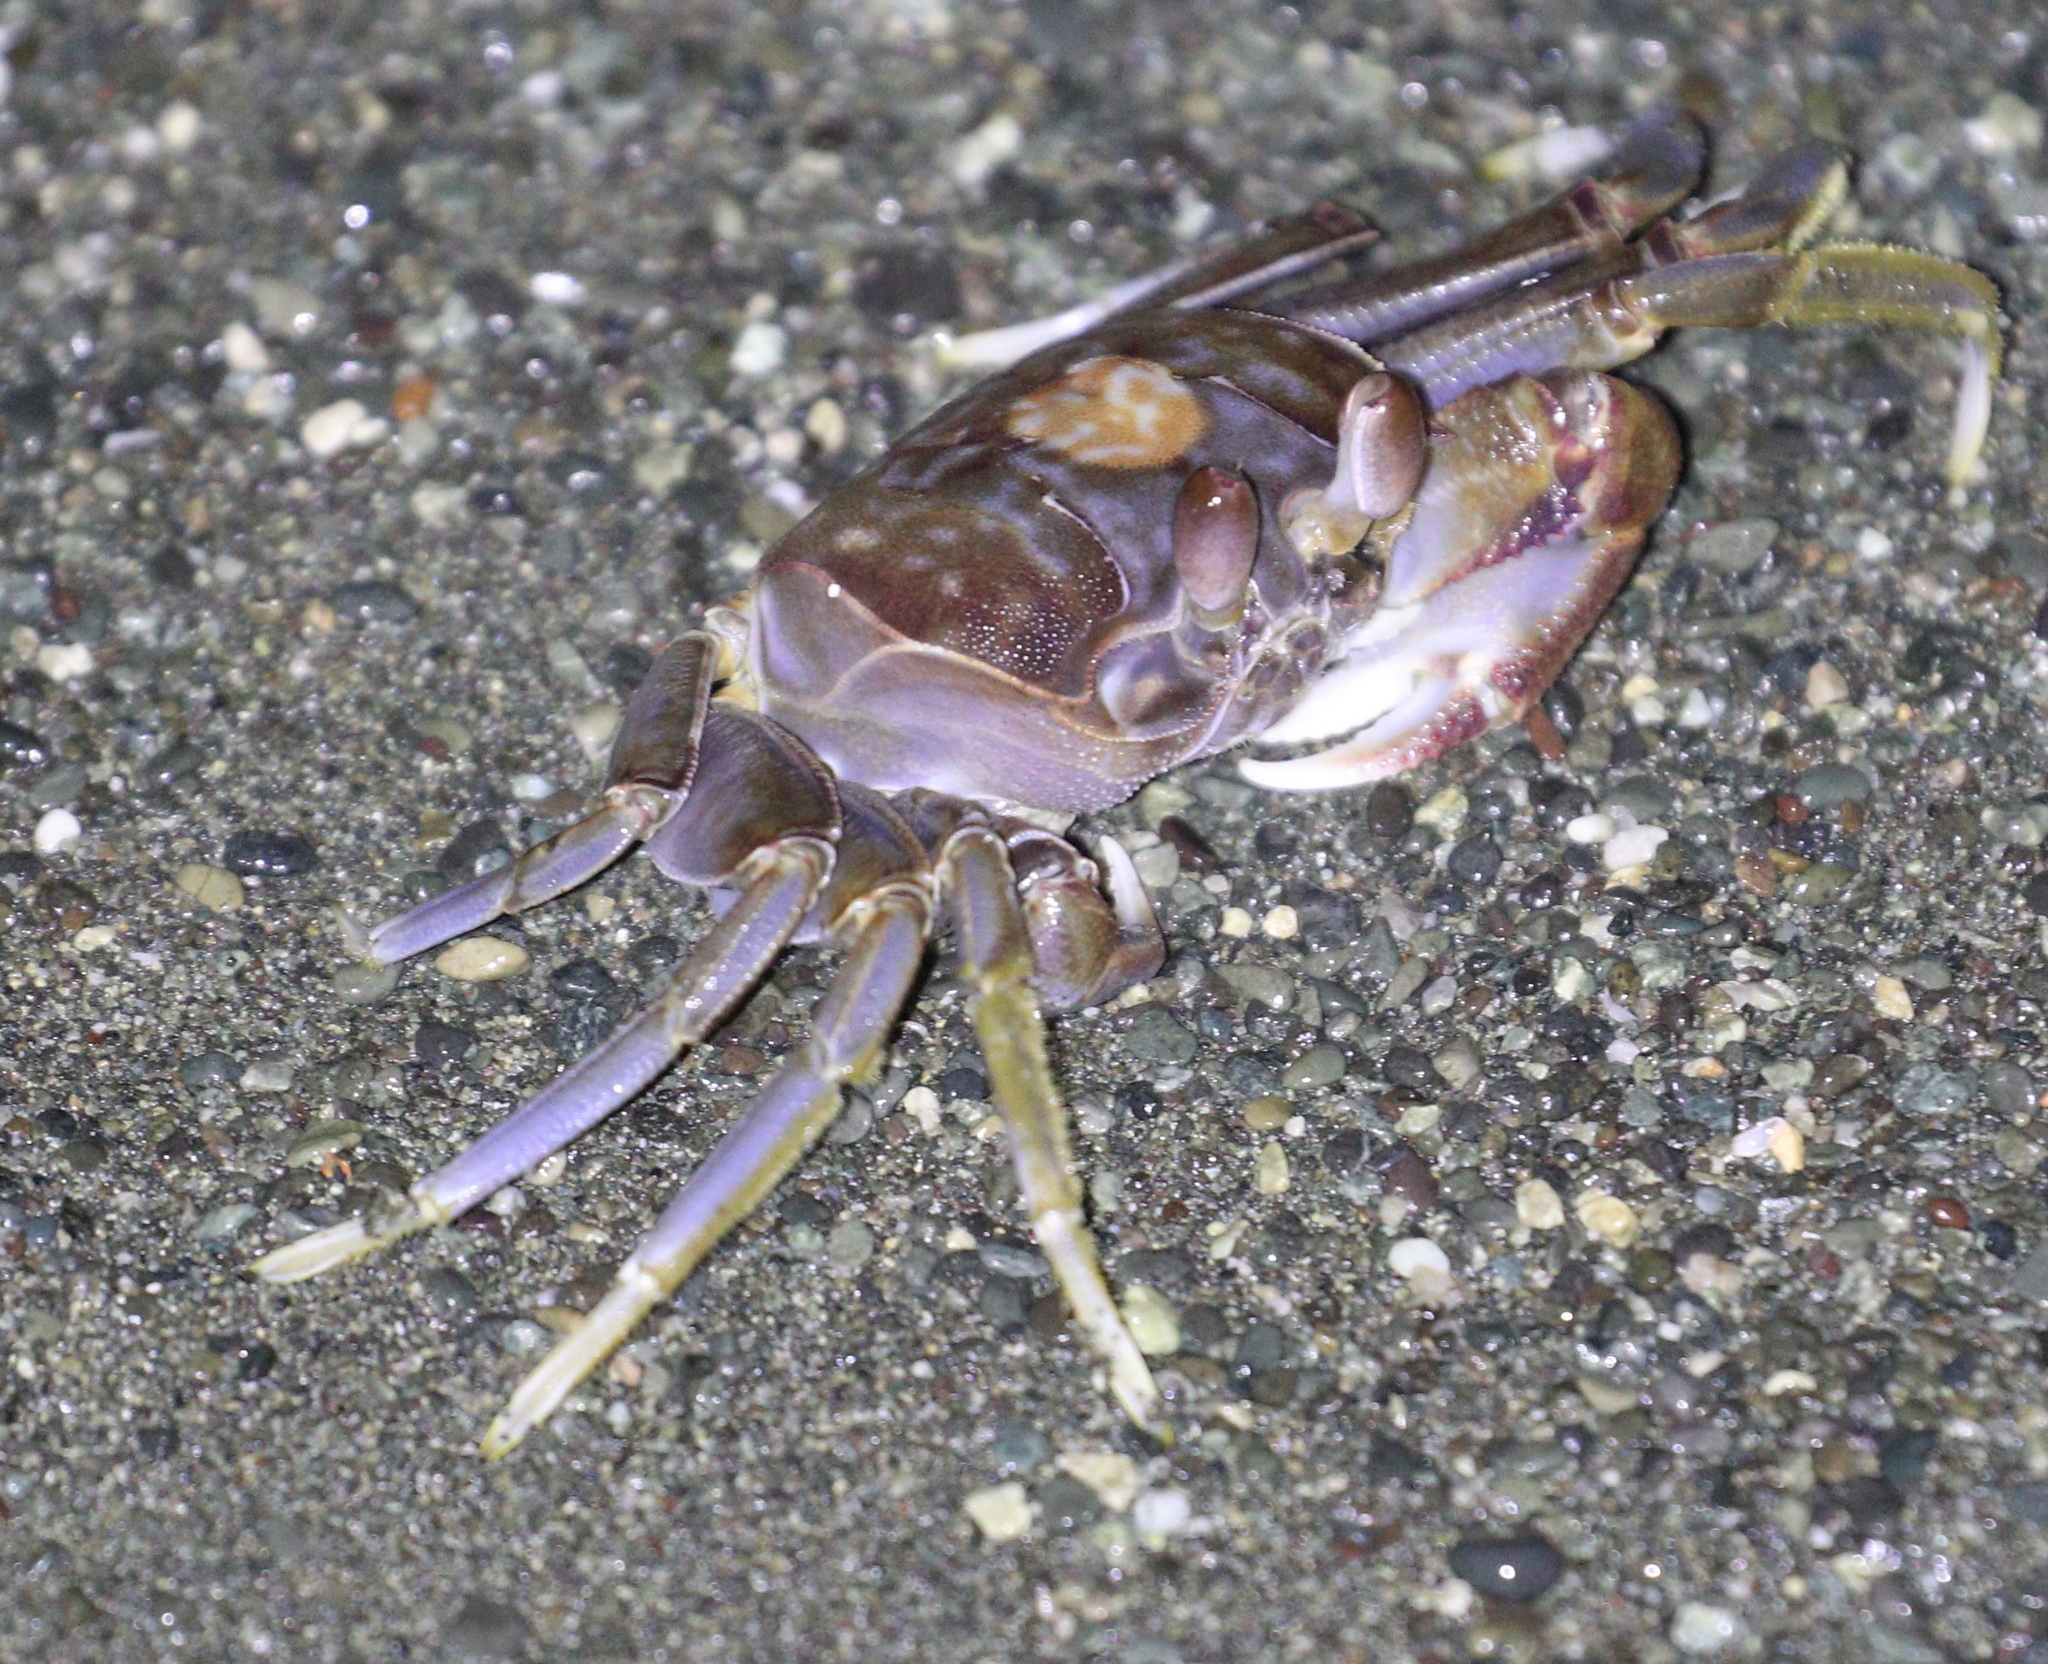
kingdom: Animalia
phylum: Arthropoda
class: Malacostraca
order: Decapoda
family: Ocypodidae
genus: Ocypode
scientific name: Ocypode occidentalis
